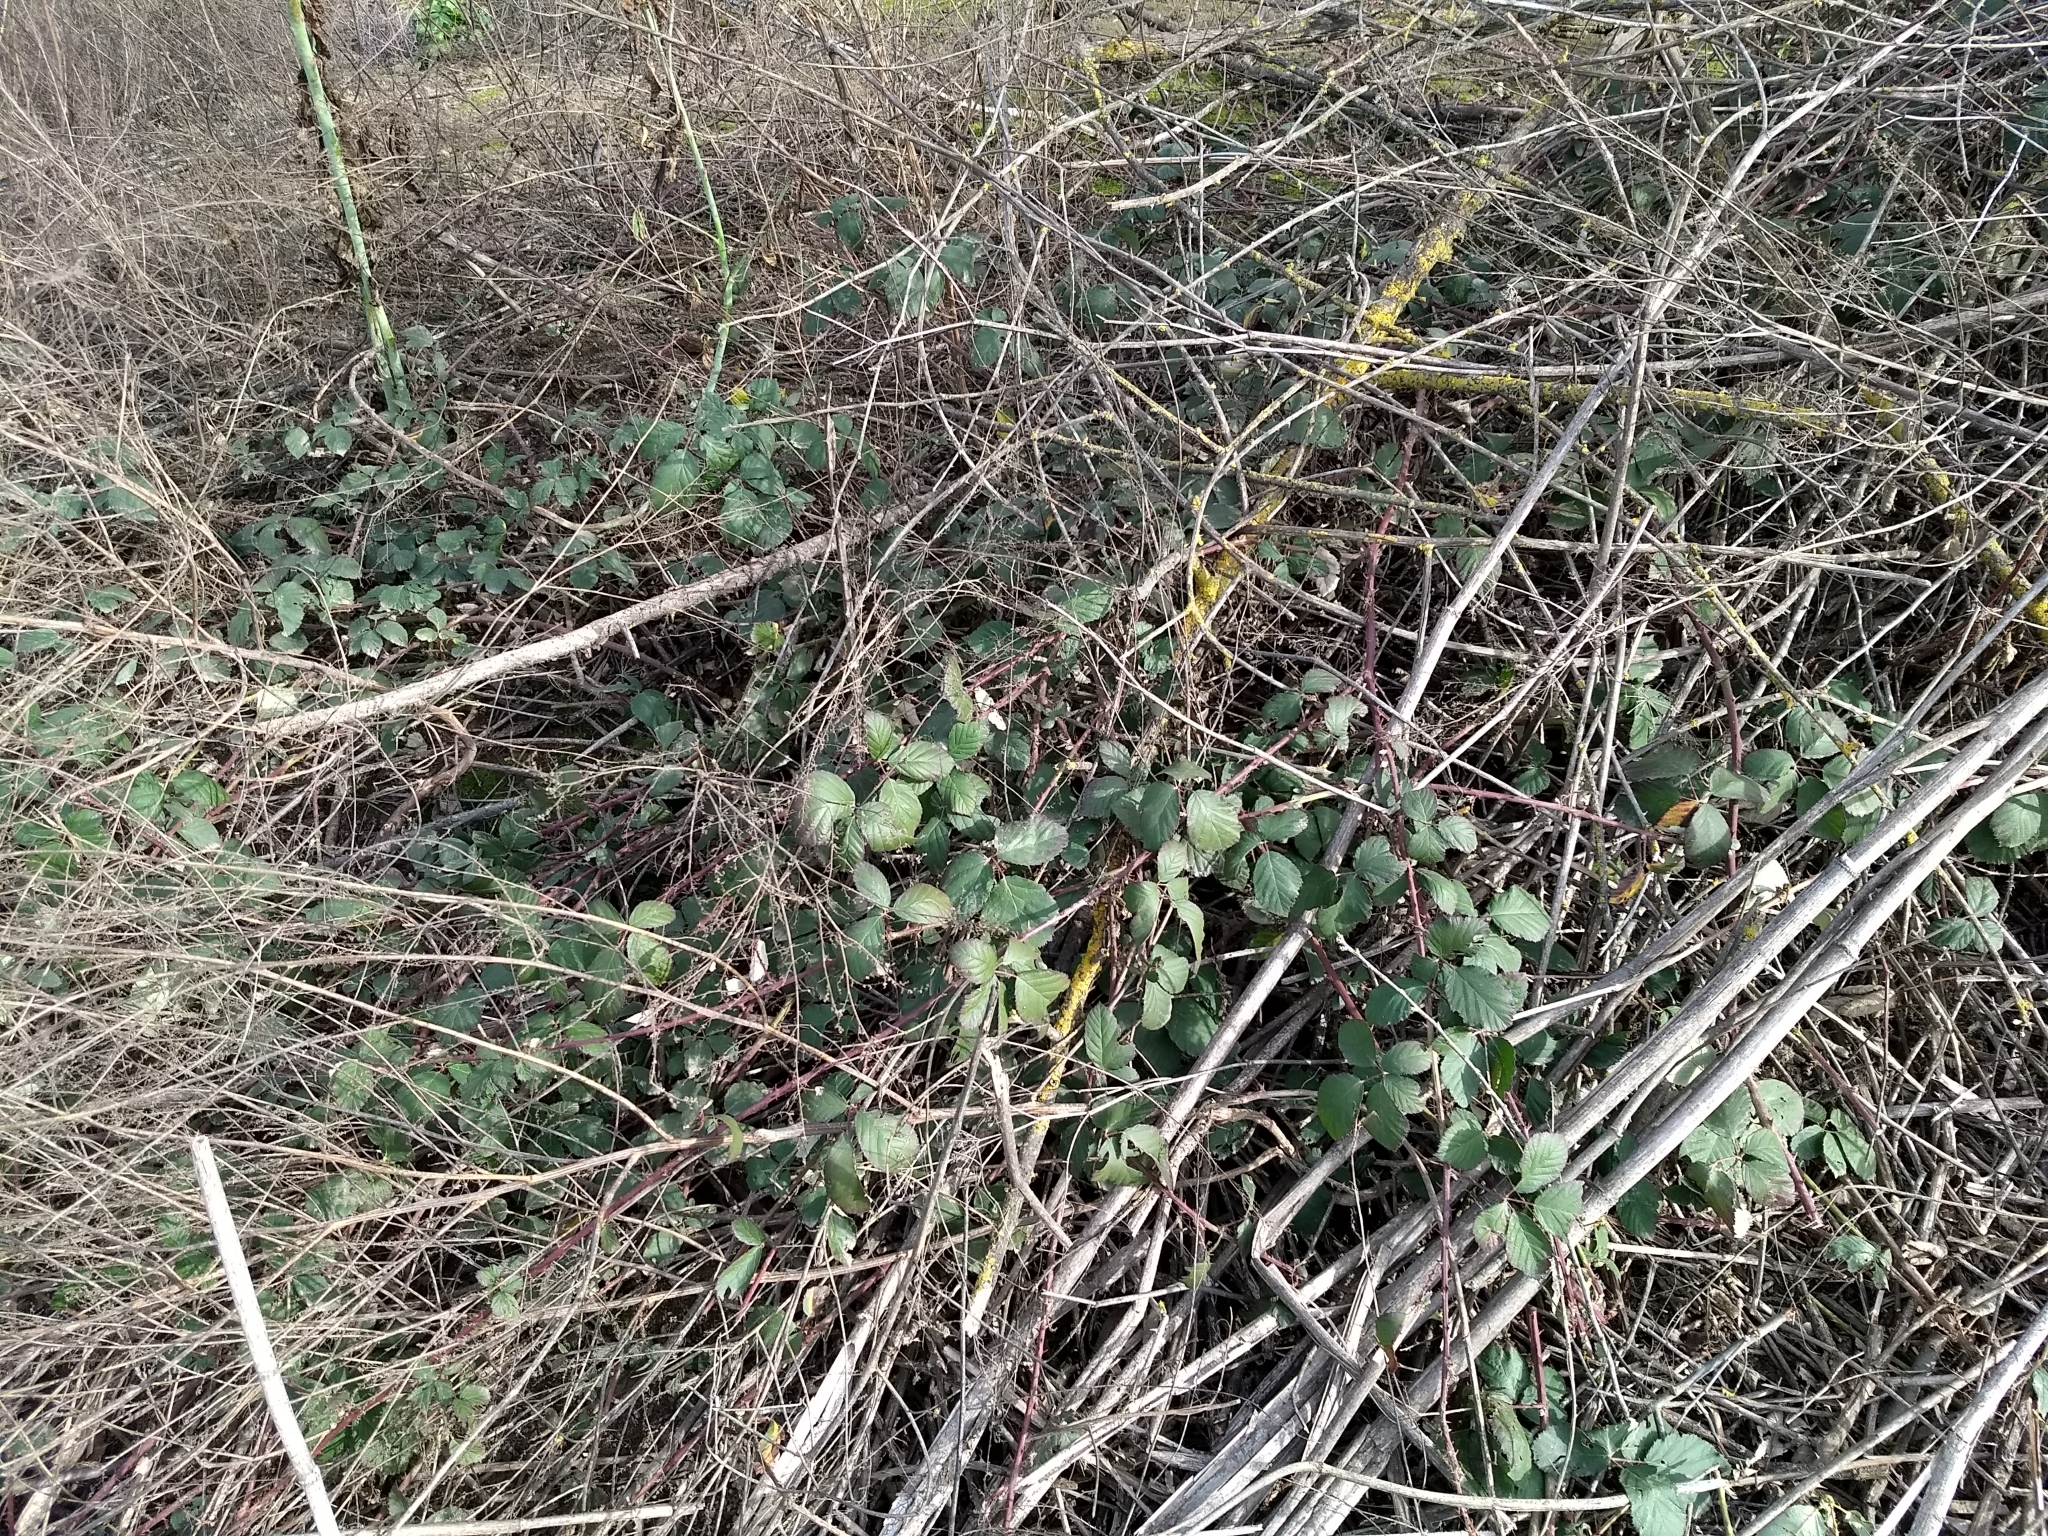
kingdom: Plantae
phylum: Tracheophyta
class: Magnoliopsida
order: Rosales
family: Rosaceae
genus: Rubus
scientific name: Rubus armeniacus
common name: Himalayan blackberry
